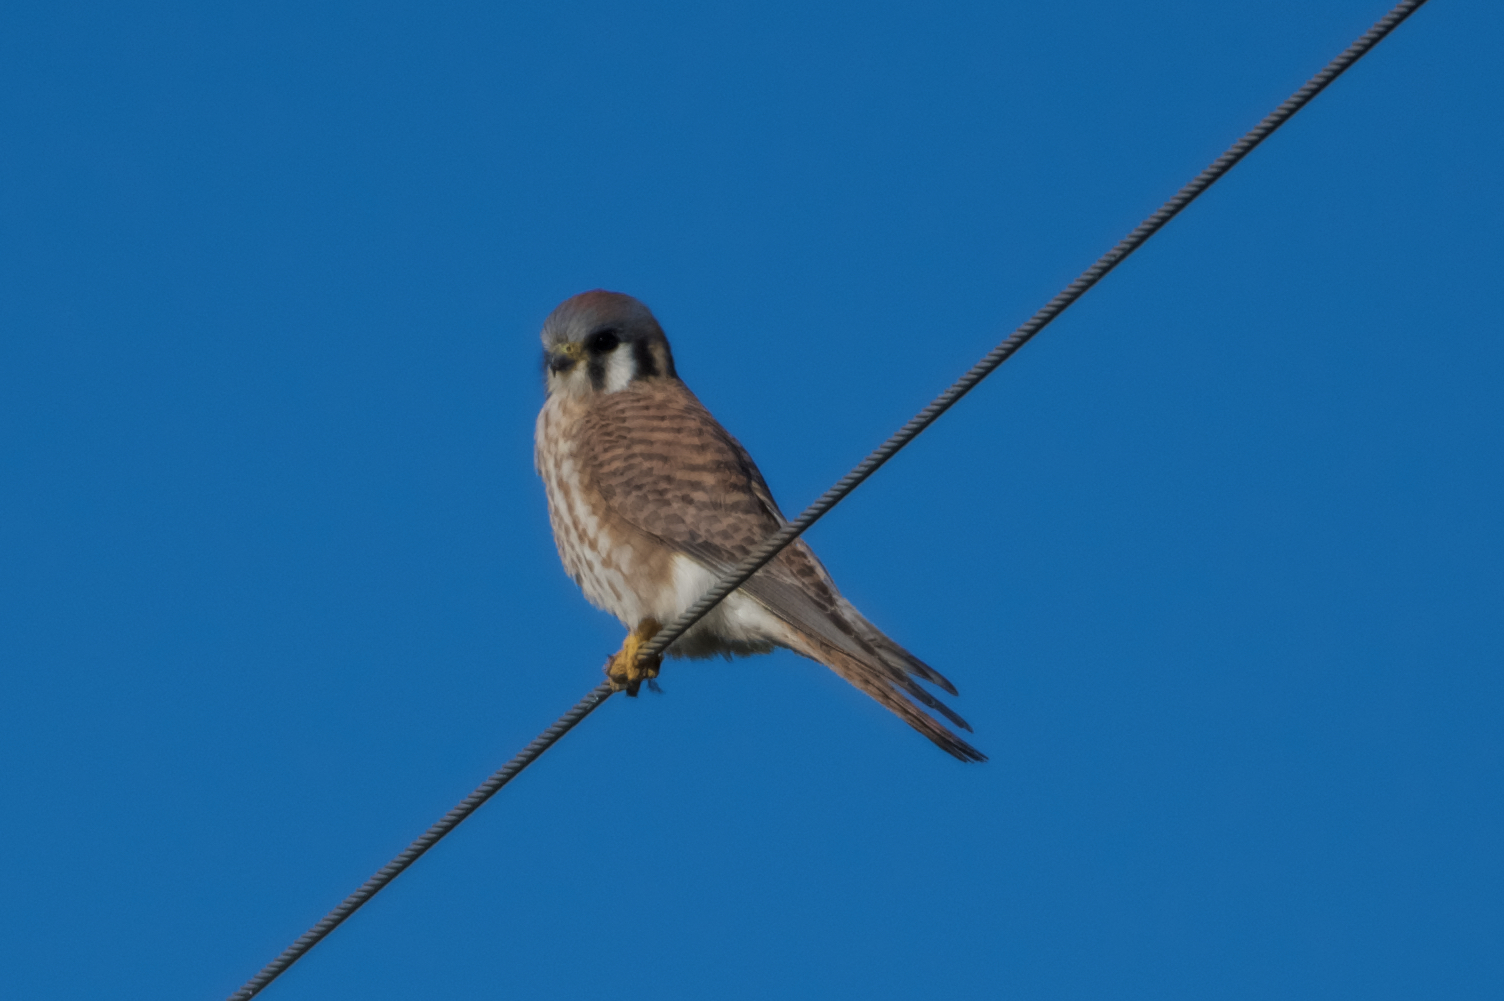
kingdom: Animalia
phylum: Chordata
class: Aves
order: Falconiformes
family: Falconidae
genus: Falco
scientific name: Falco sparverius
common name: American kestrel
